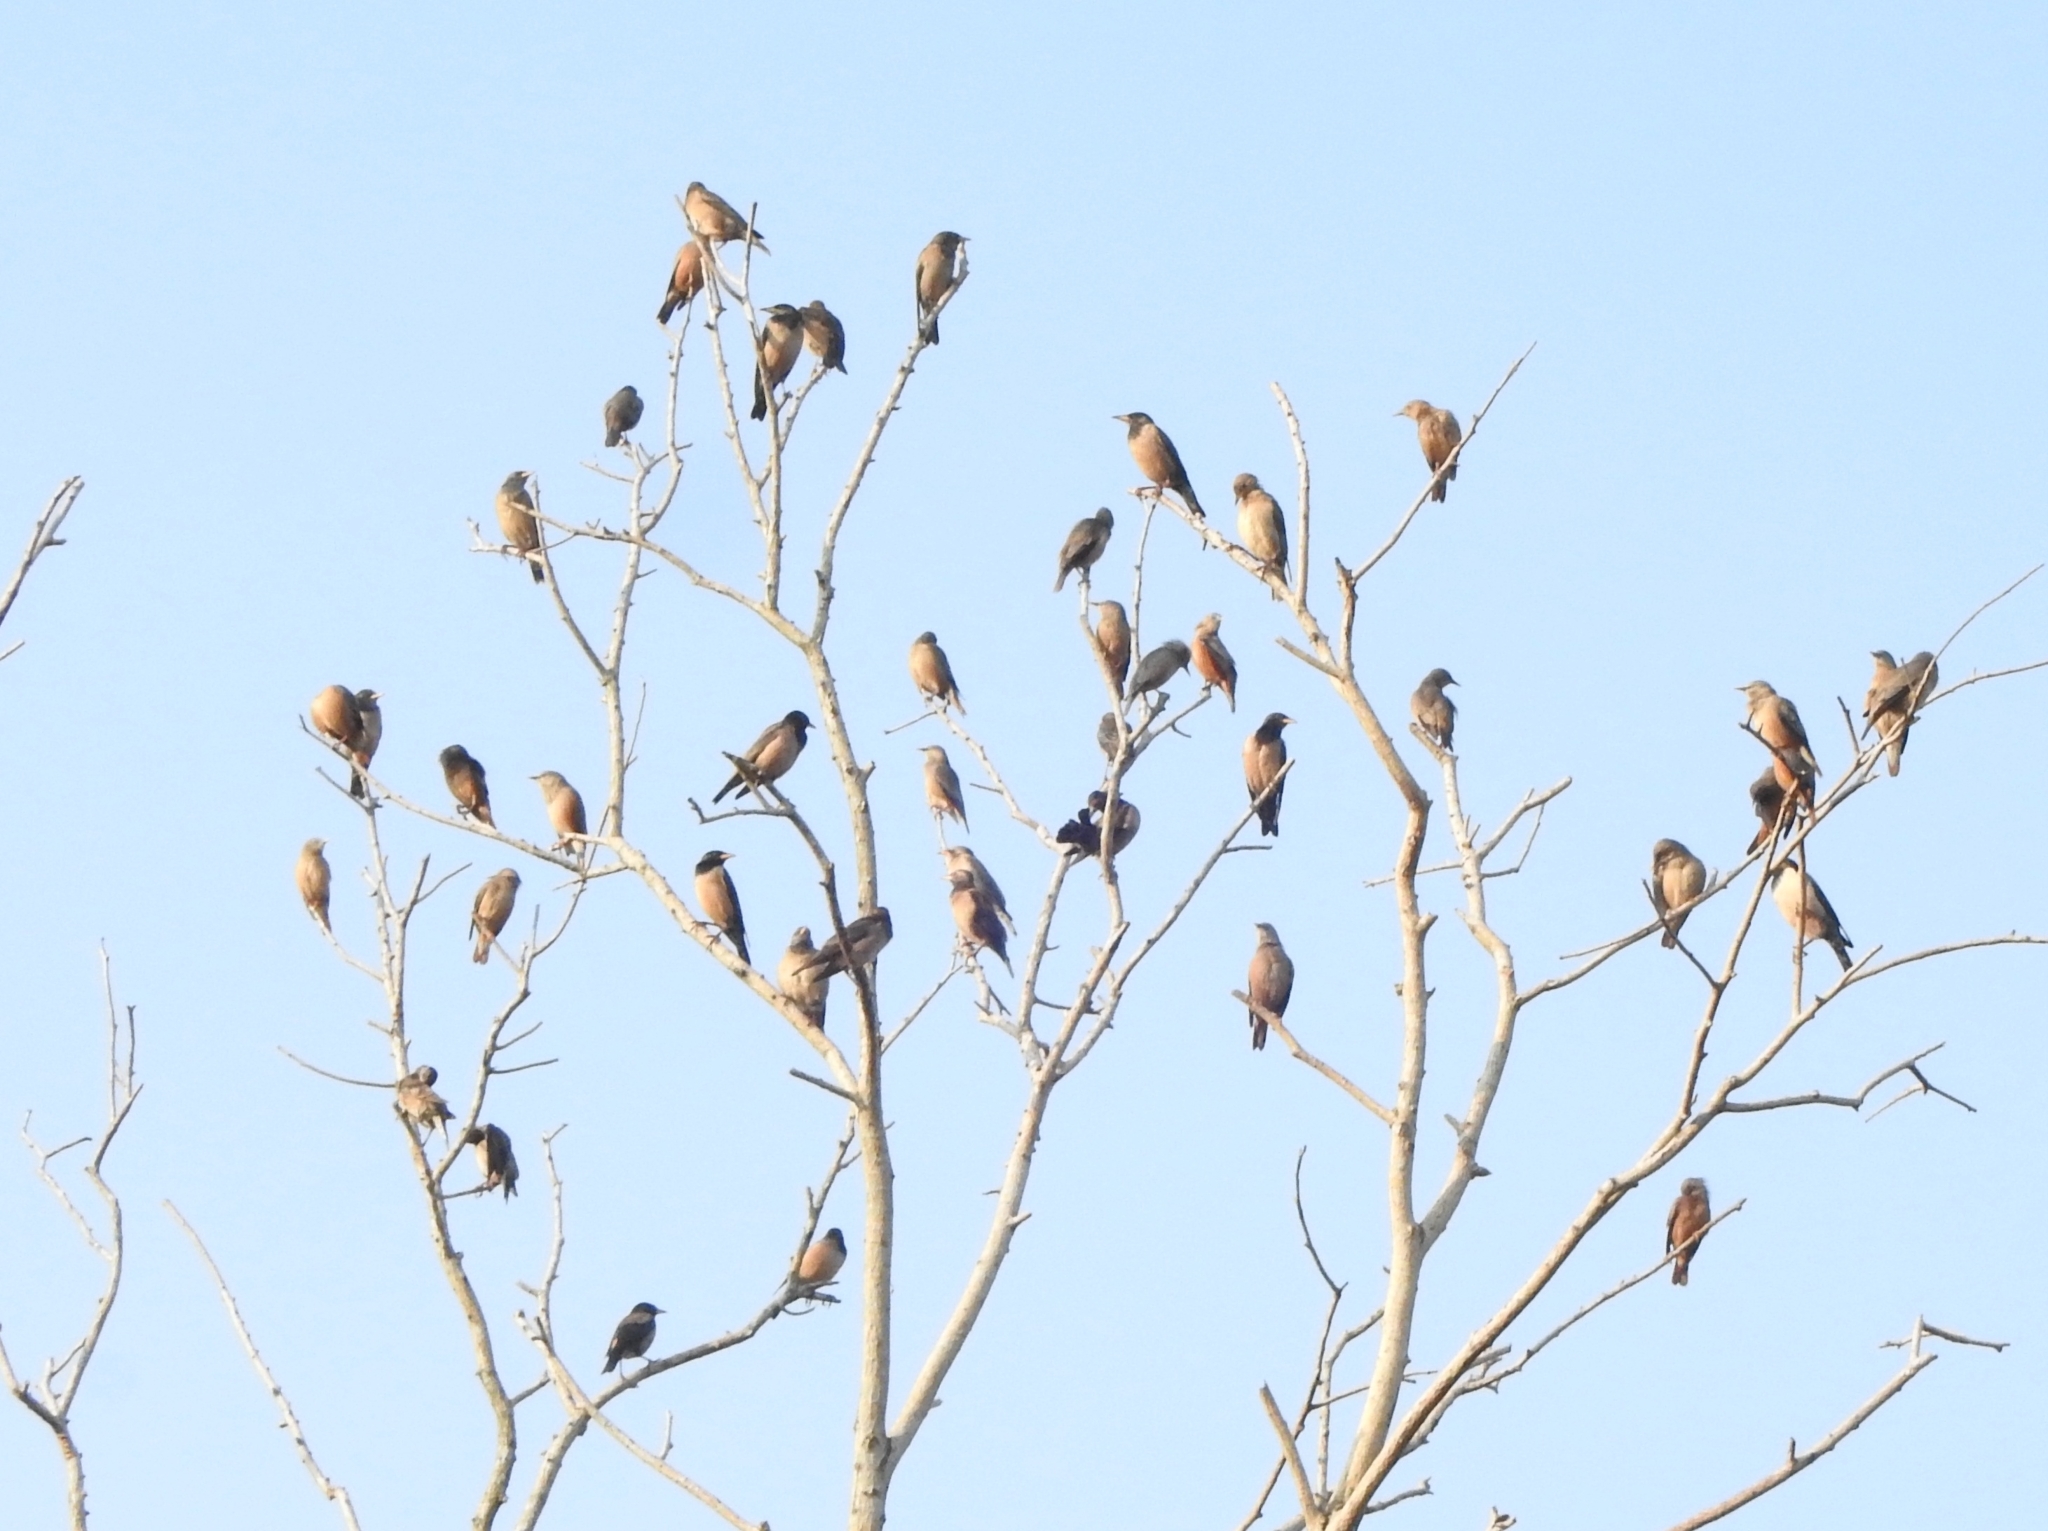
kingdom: Animalia
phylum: Chordata
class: Aves
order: Passeriformes
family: Sturnidae
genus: Sturnia
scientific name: Sturnia malabarica
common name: Chestnut-tailed starling
